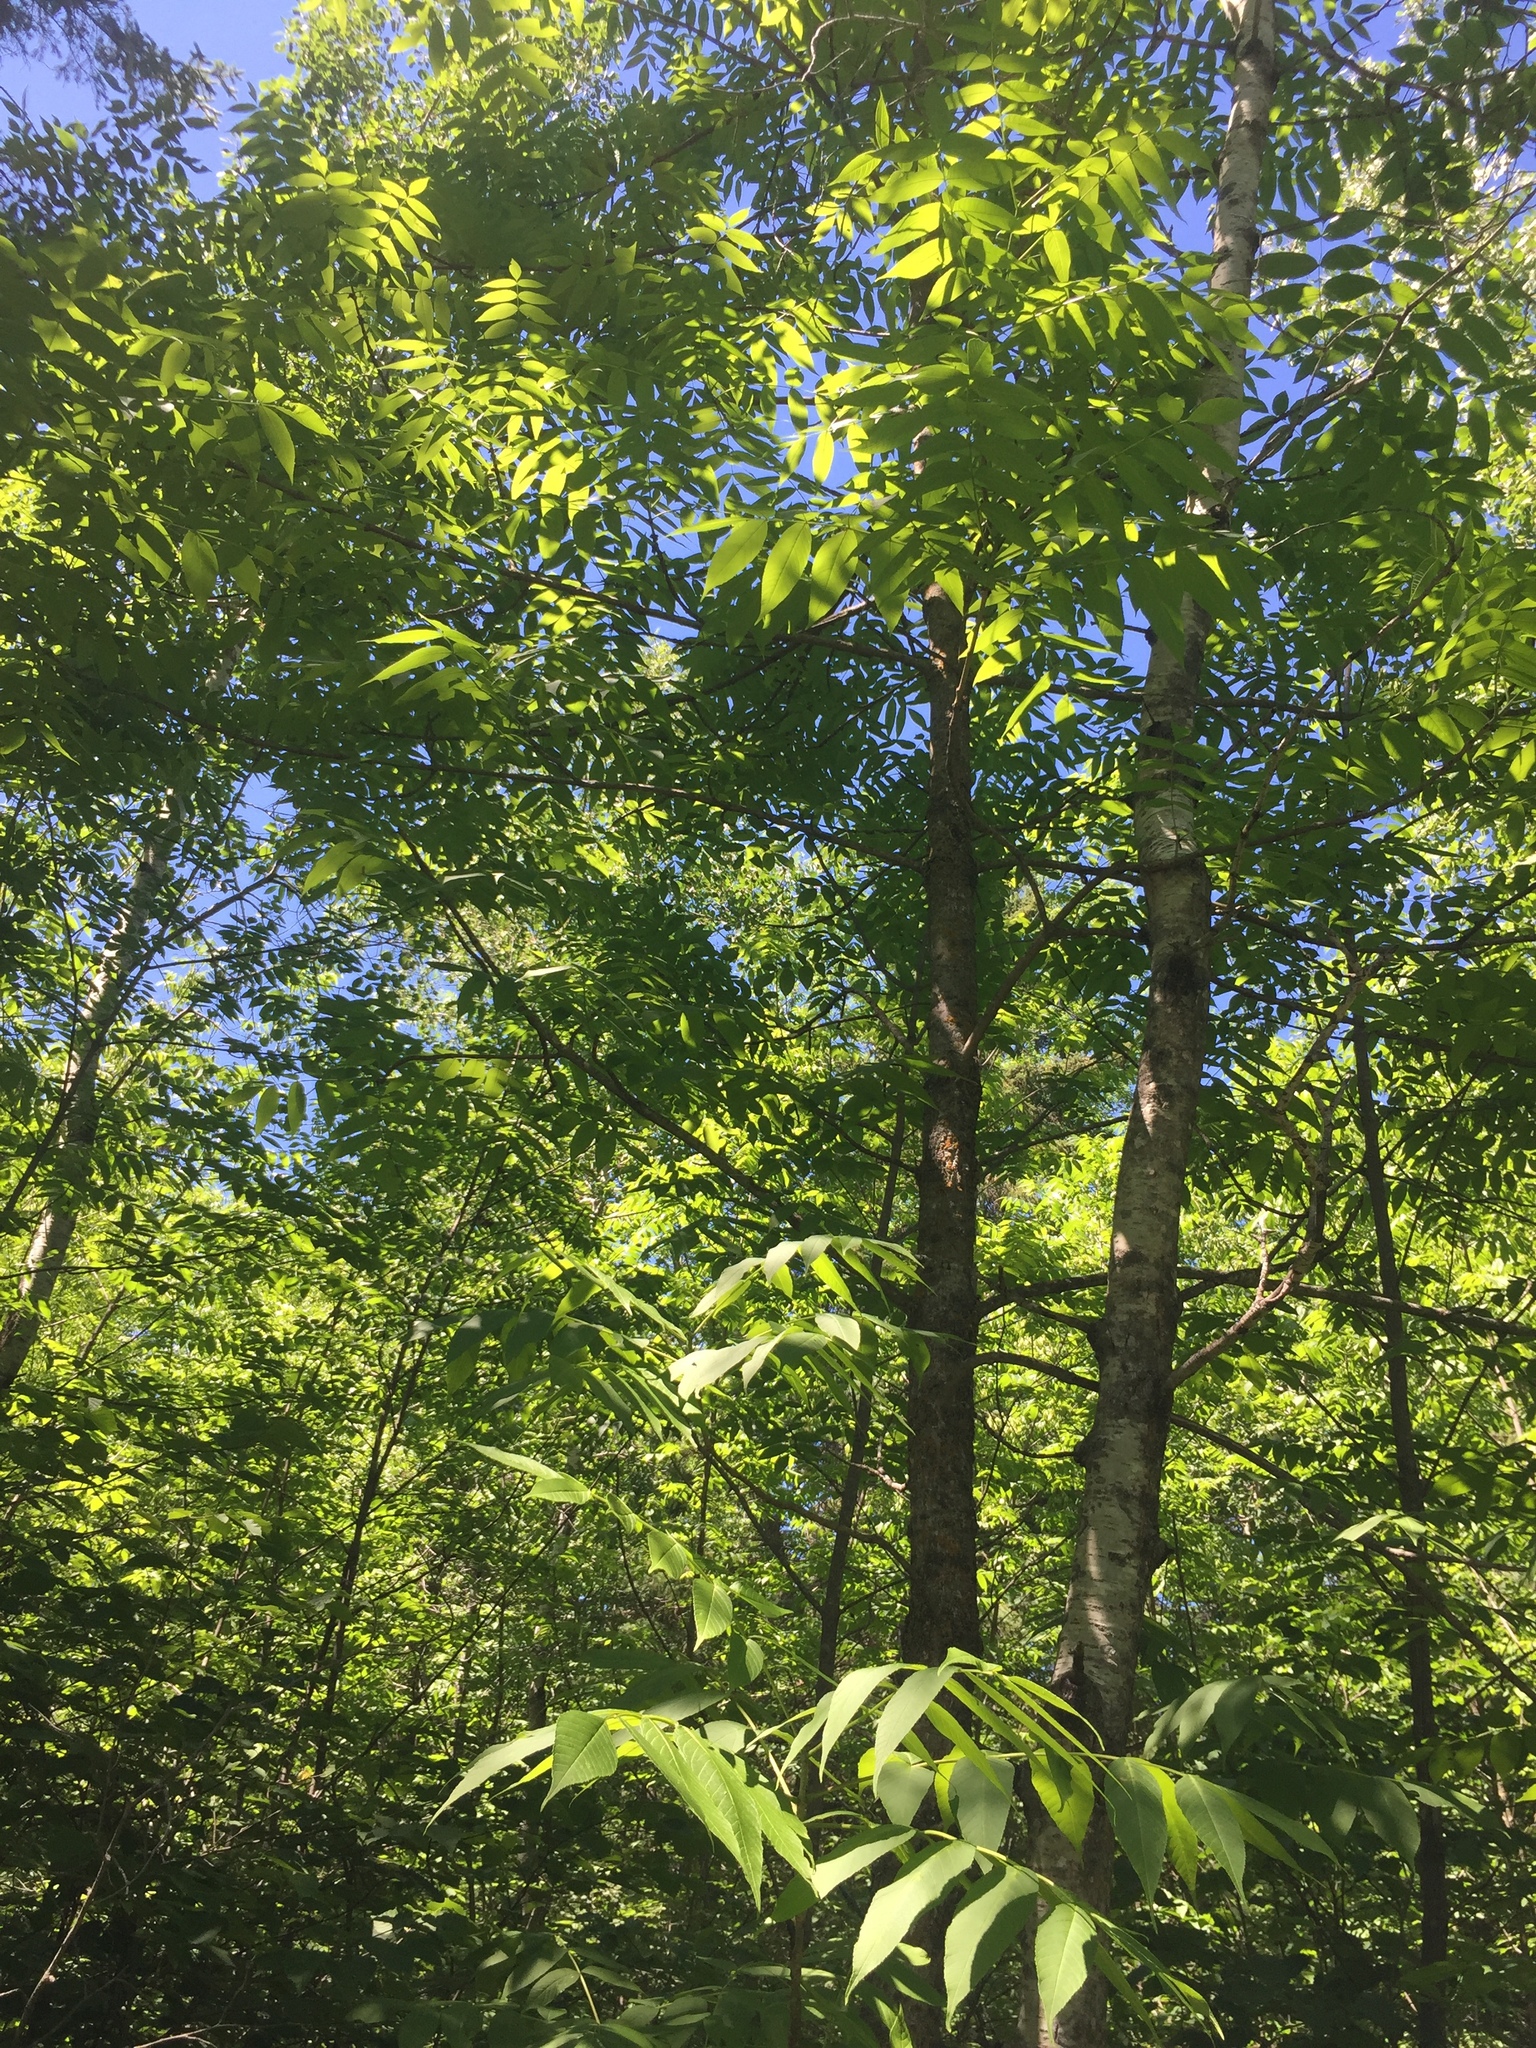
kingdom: Plantae
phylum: Tracheophyta
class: Magnoliopsida
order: Lamiales
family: Oleaceae
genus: Fraxinus
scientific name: Fraxinus nigra
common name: Black ash
